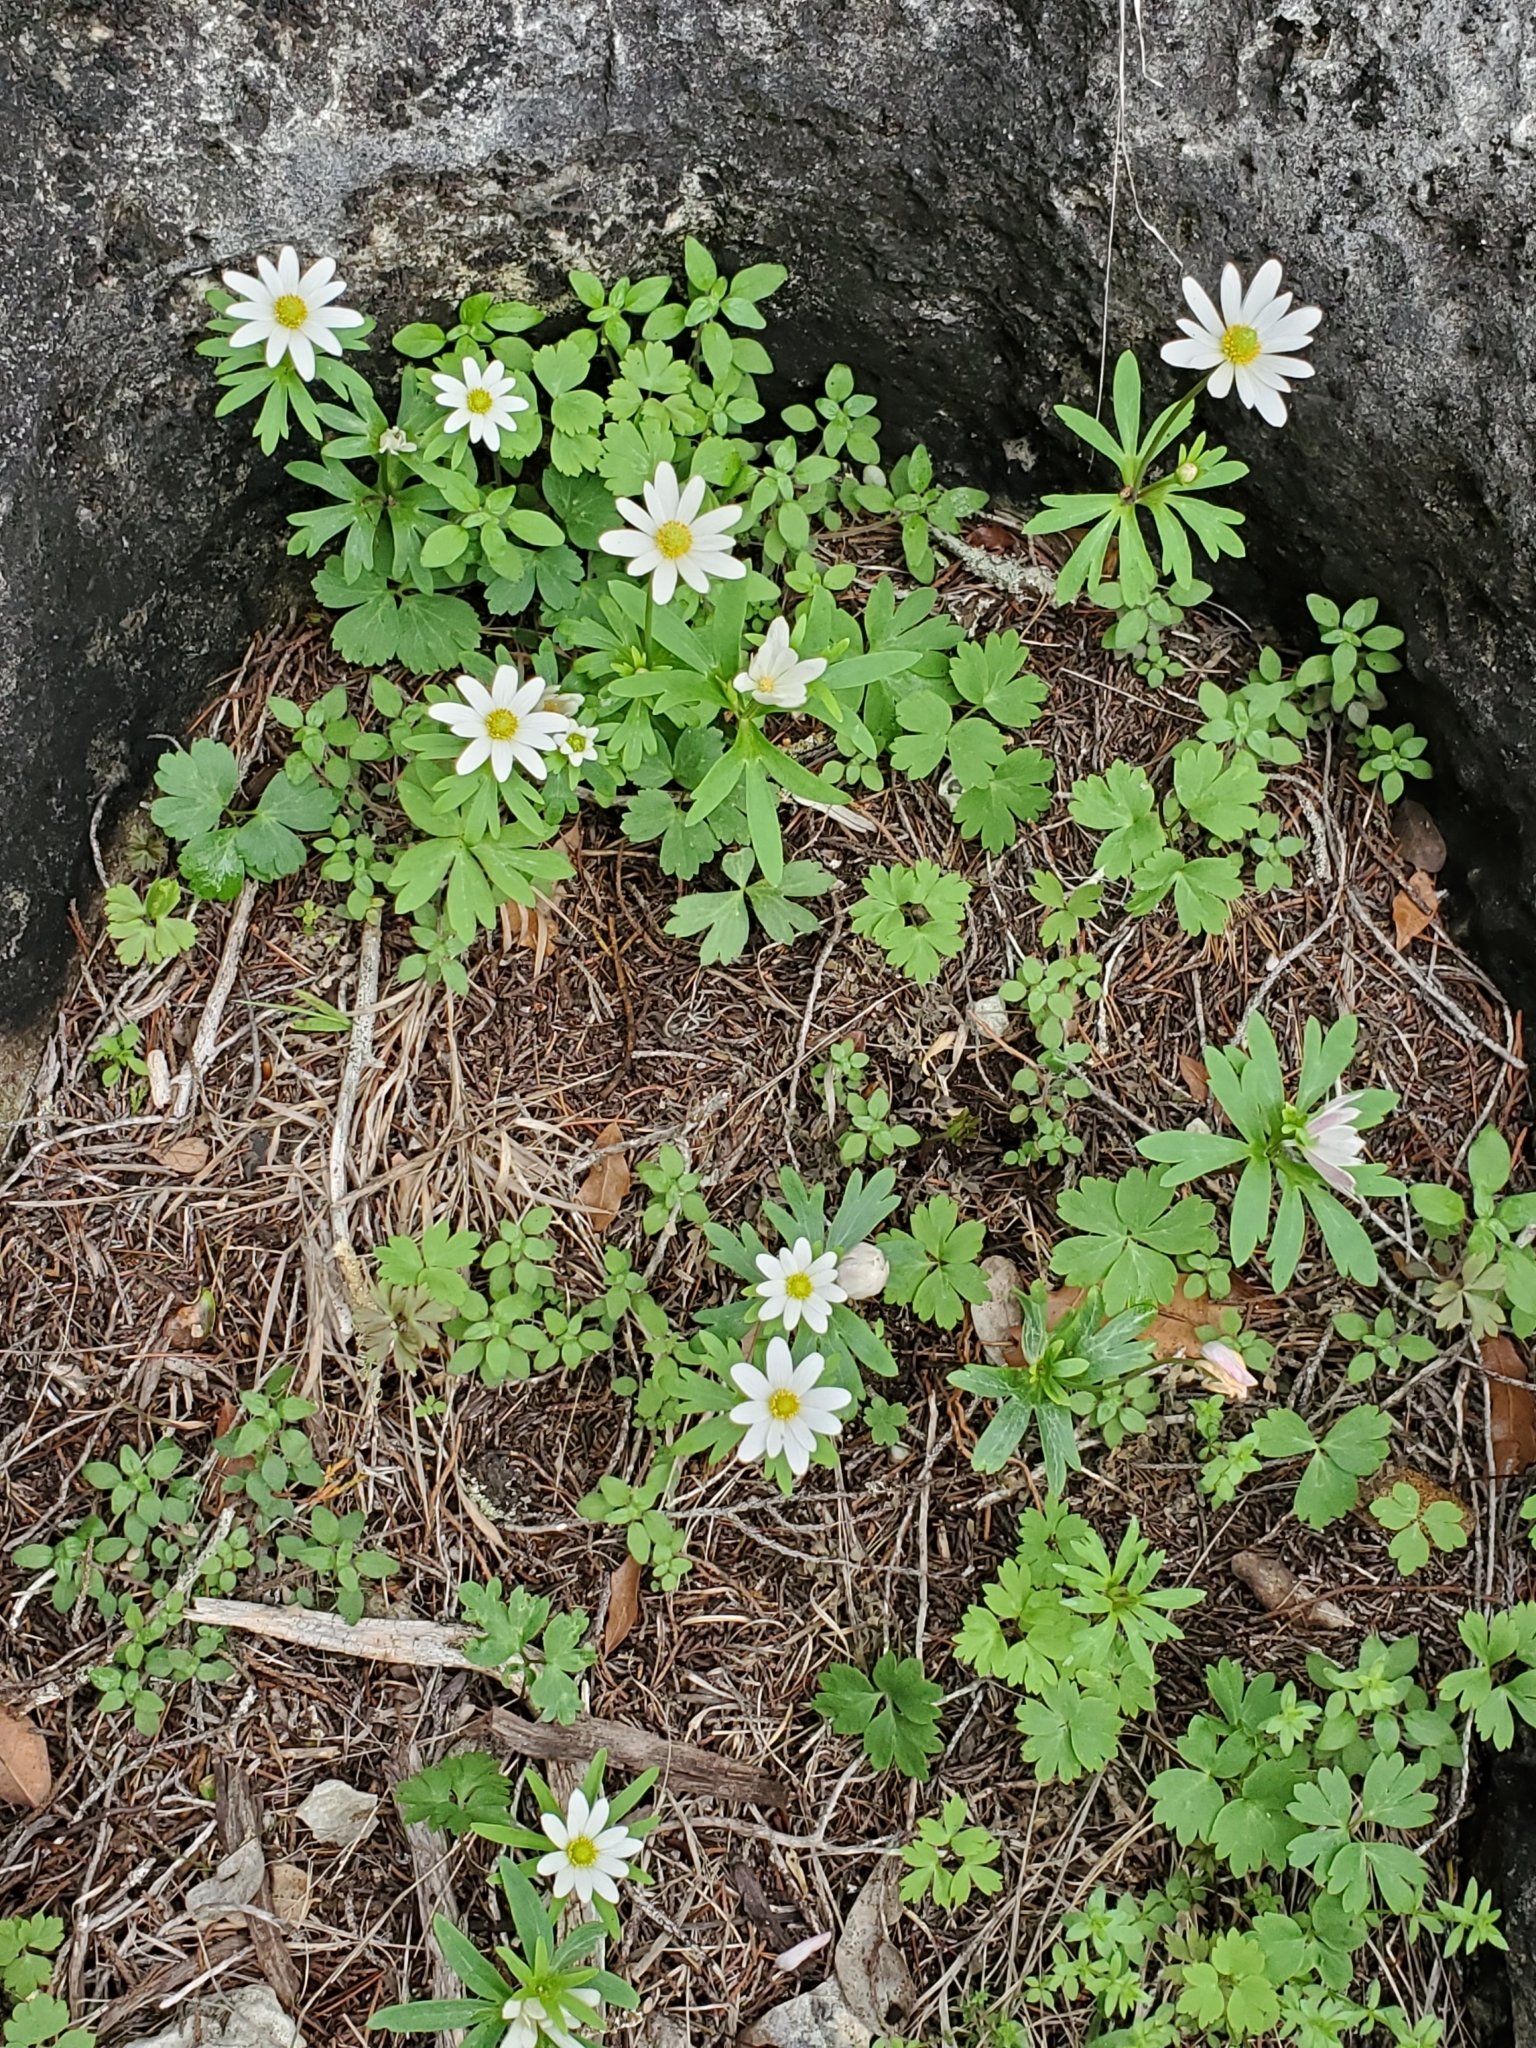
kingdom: Plantae
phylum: Tracheophyta
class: Magnoliopsida
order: Ranunculales
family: Ranunculaceae
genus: Anemone
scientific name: Anemone edwardsiana
